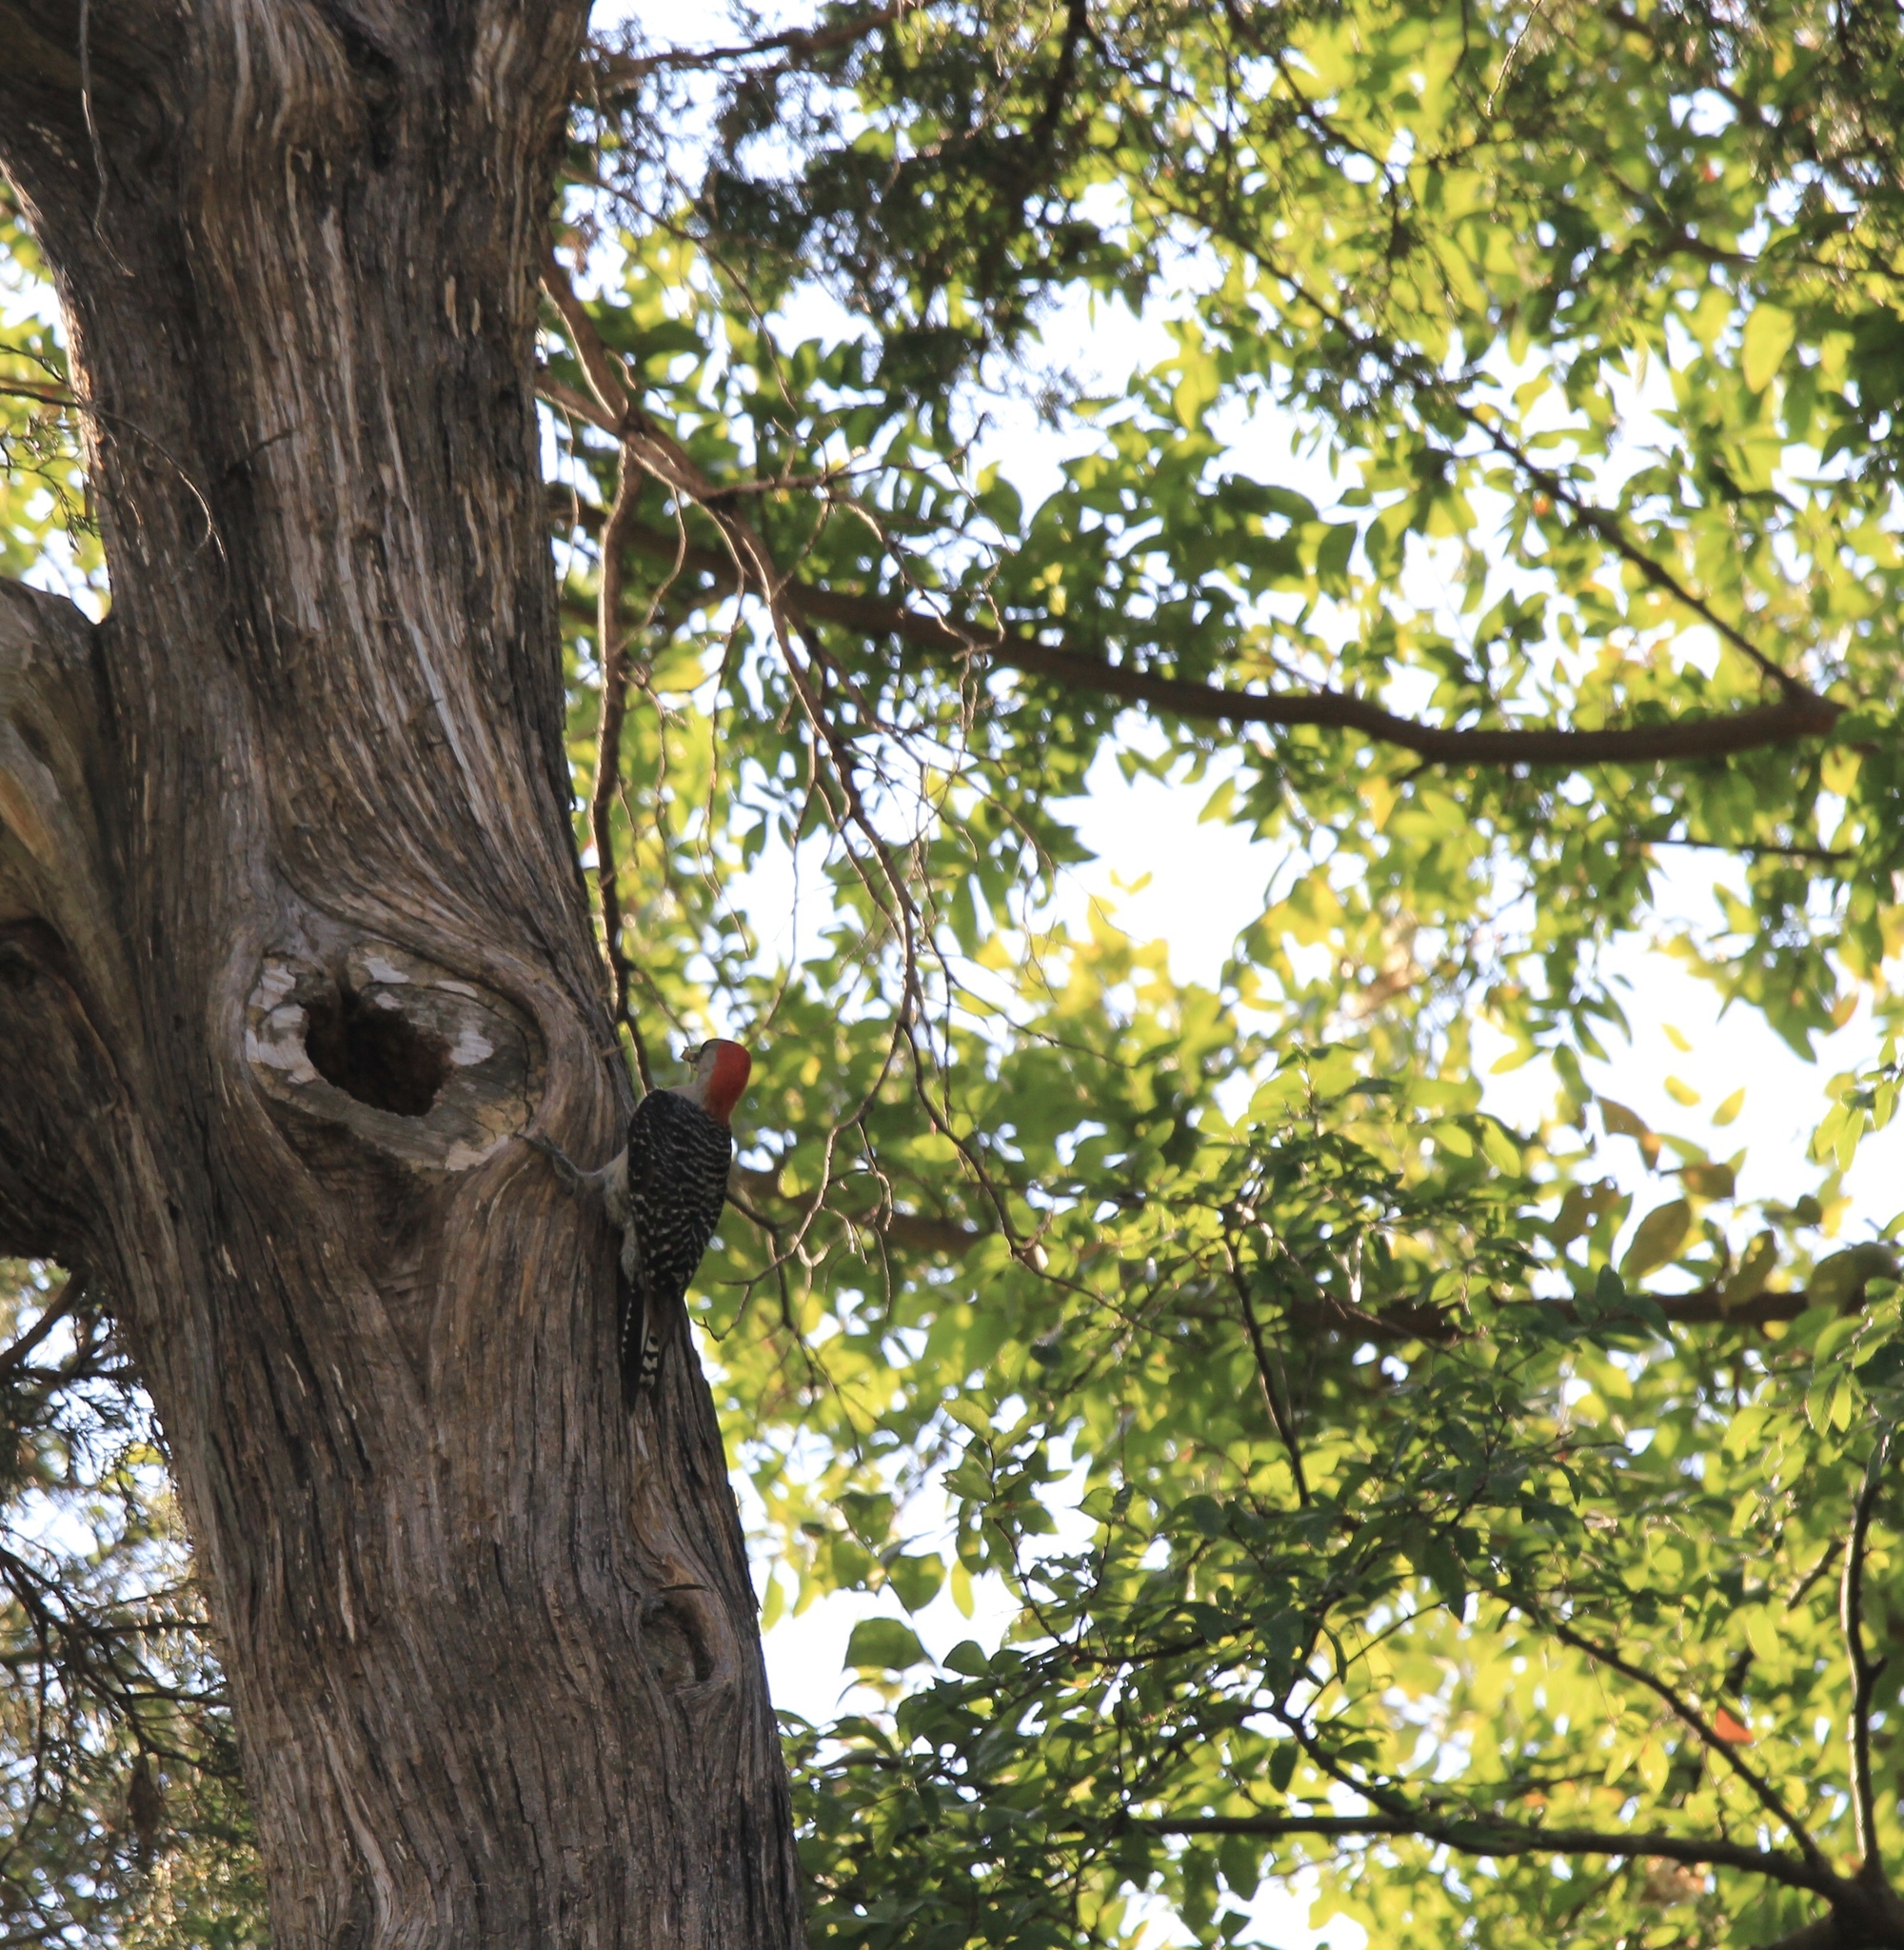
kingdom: Animalia
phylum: Chordata
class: Aves
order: Piciformes
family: Picidae
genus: Melanerpes
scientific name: Melanerpes carolinus
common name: Red-bellied woodpecker
